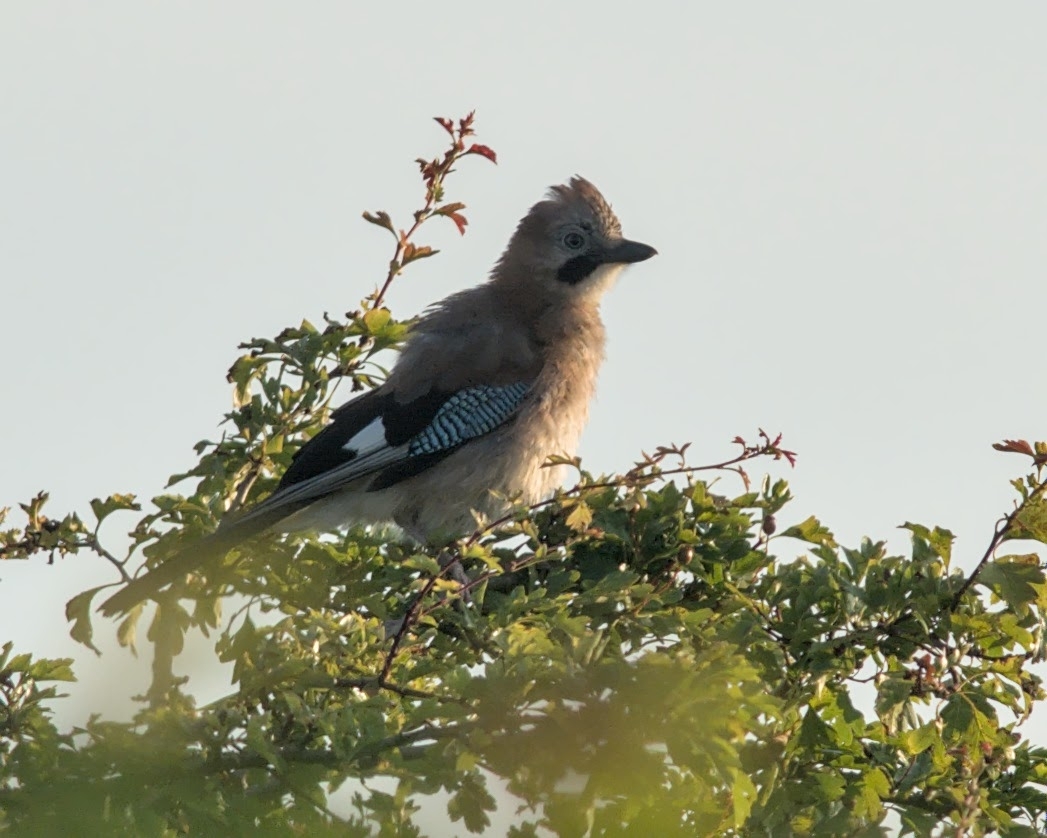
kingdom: Animalia
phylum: Chordata
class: Aves
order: Passeriformes
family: Corvidae
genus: Garrulus
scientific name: Garrulus glandarius
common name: Eurasian jay
